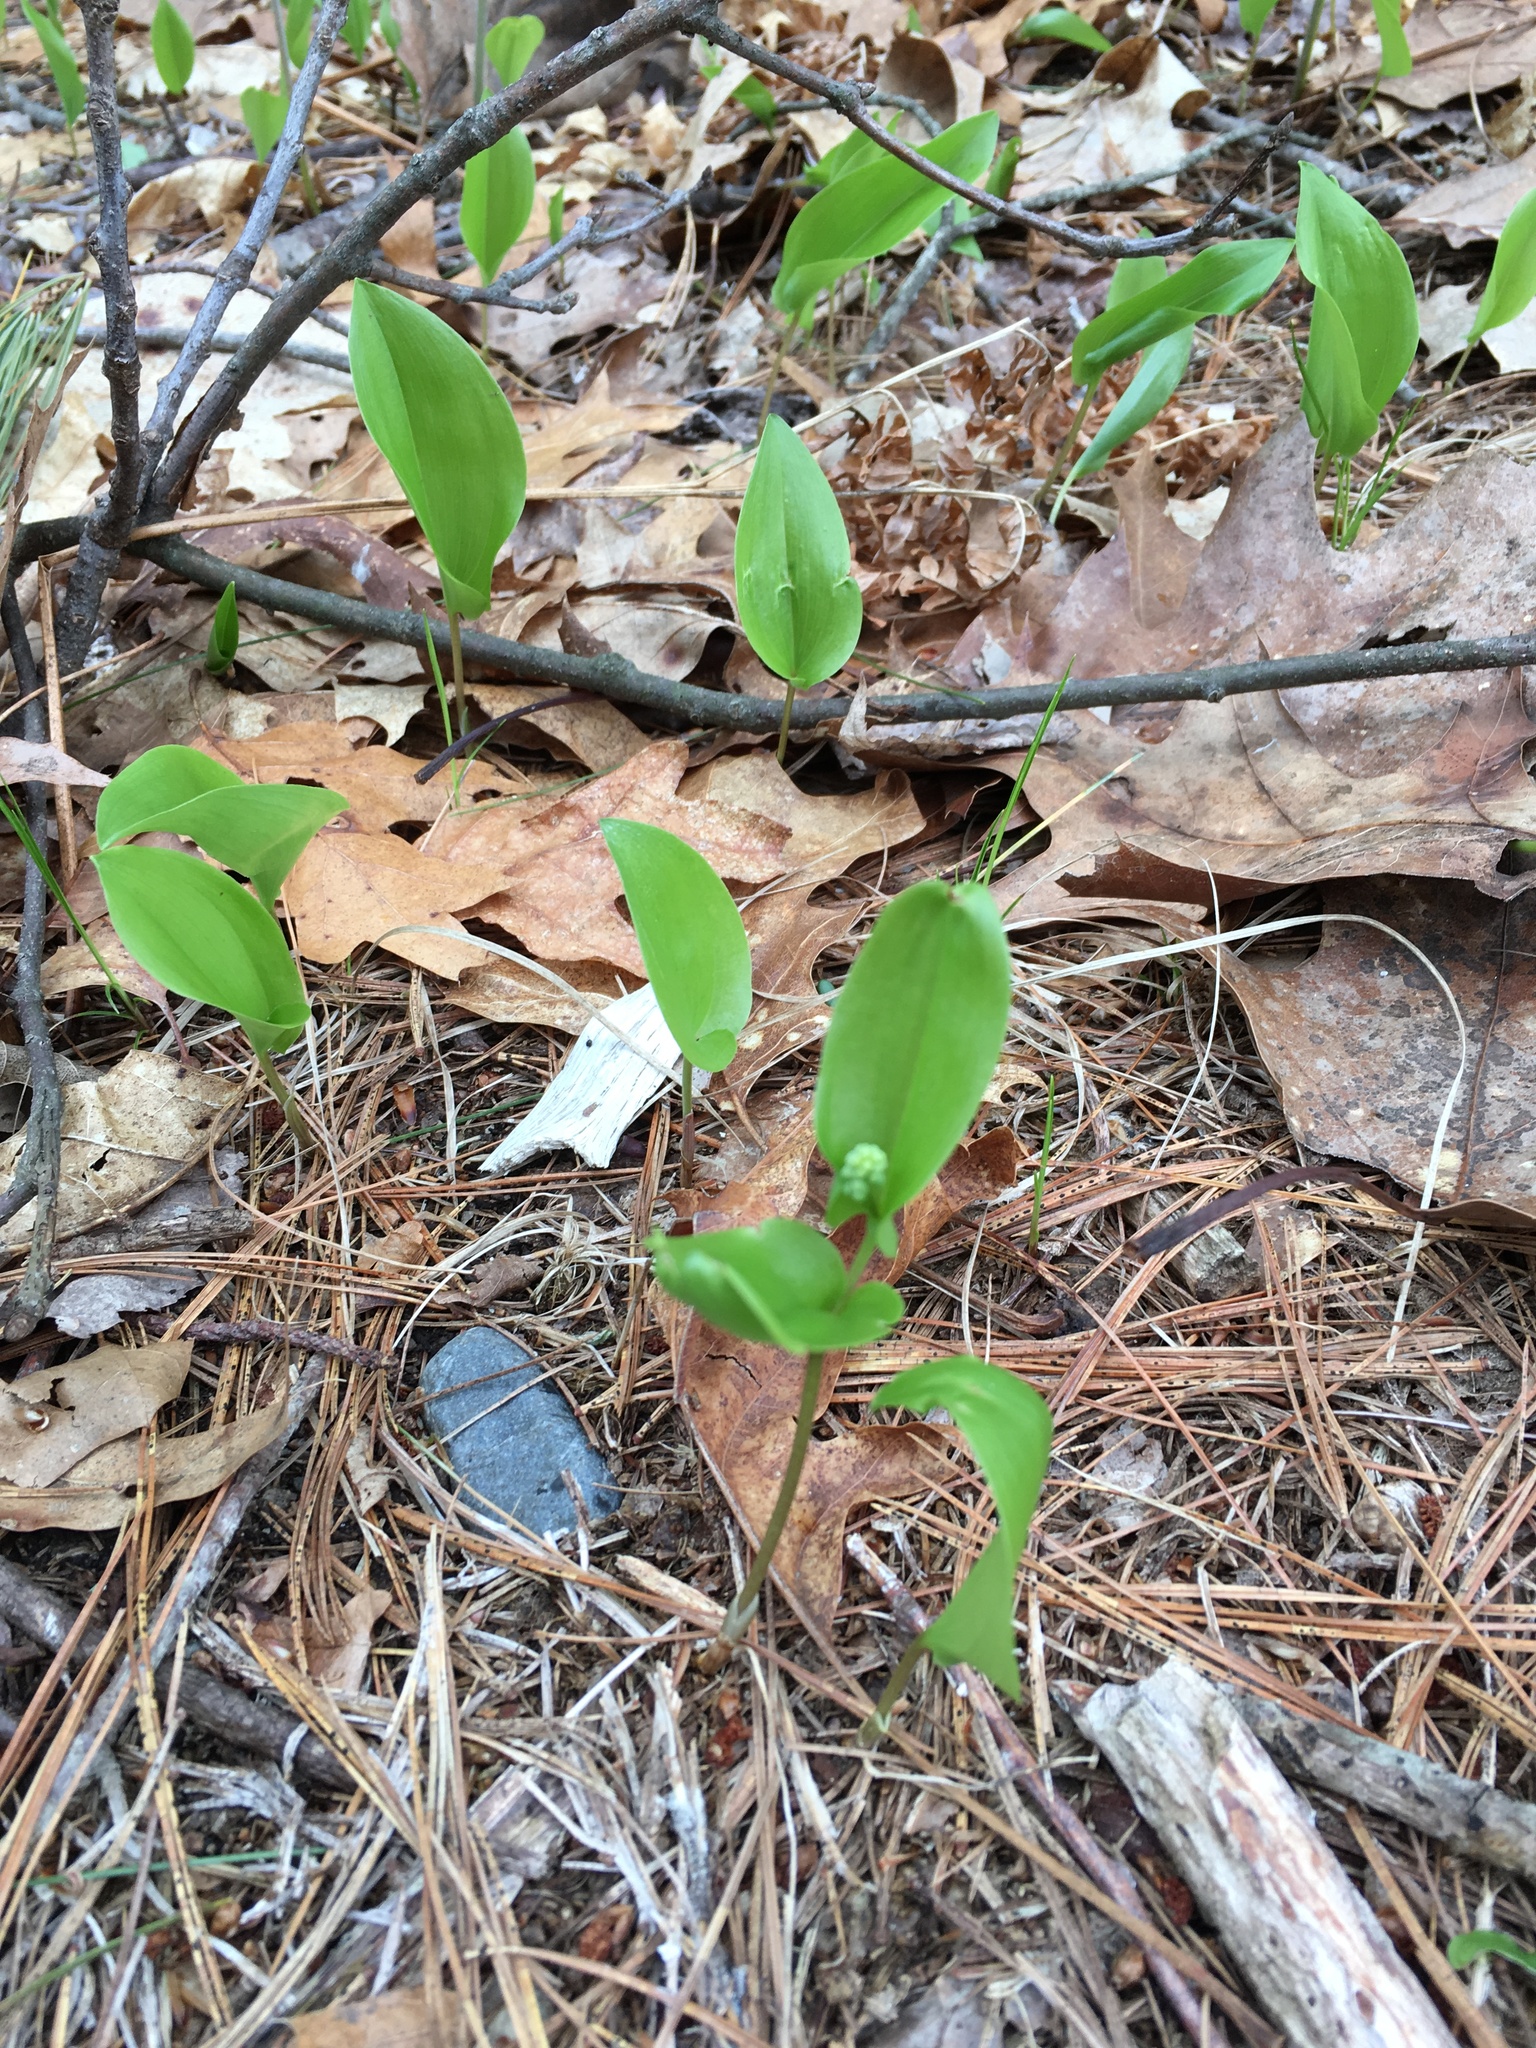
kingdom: Plantae
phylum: Tracheophyta
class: Liliopsida
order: Asparagales
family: Asparagaceae
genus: Maianthemum
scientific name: Maianthemum canadense
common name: False lily-of-the-valley
